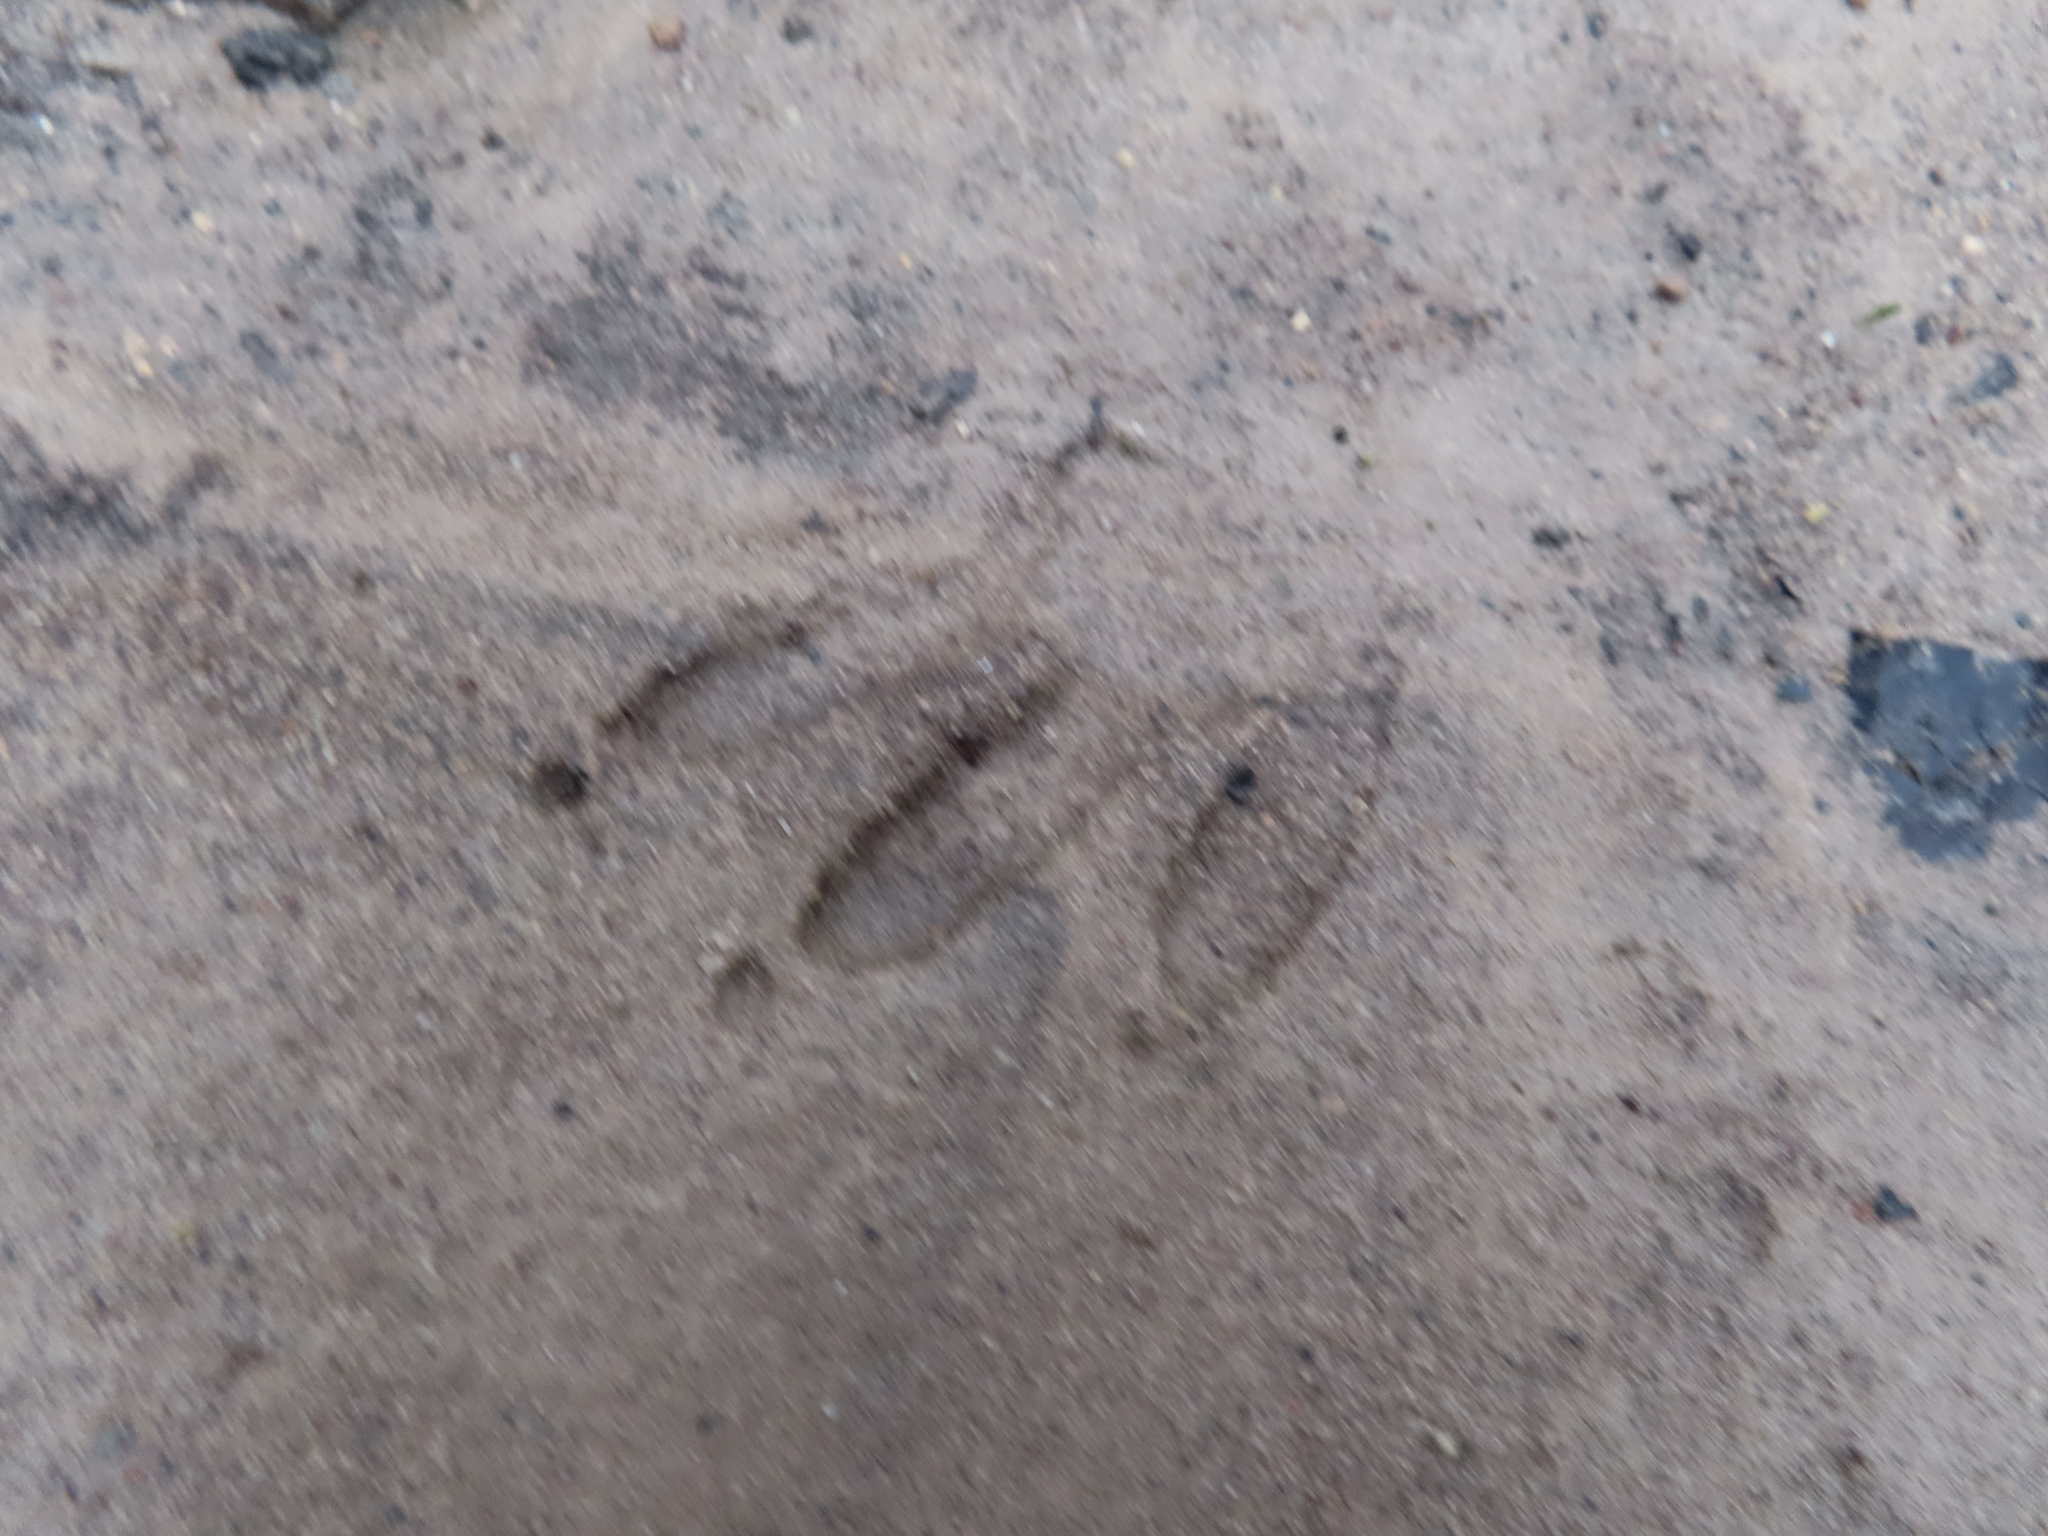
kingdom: Animalia
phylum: Chordata
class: Mammalia
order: Carnivora
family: Procyonidae
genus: Procyon
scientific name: Procyon lotor
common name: Raccoon
